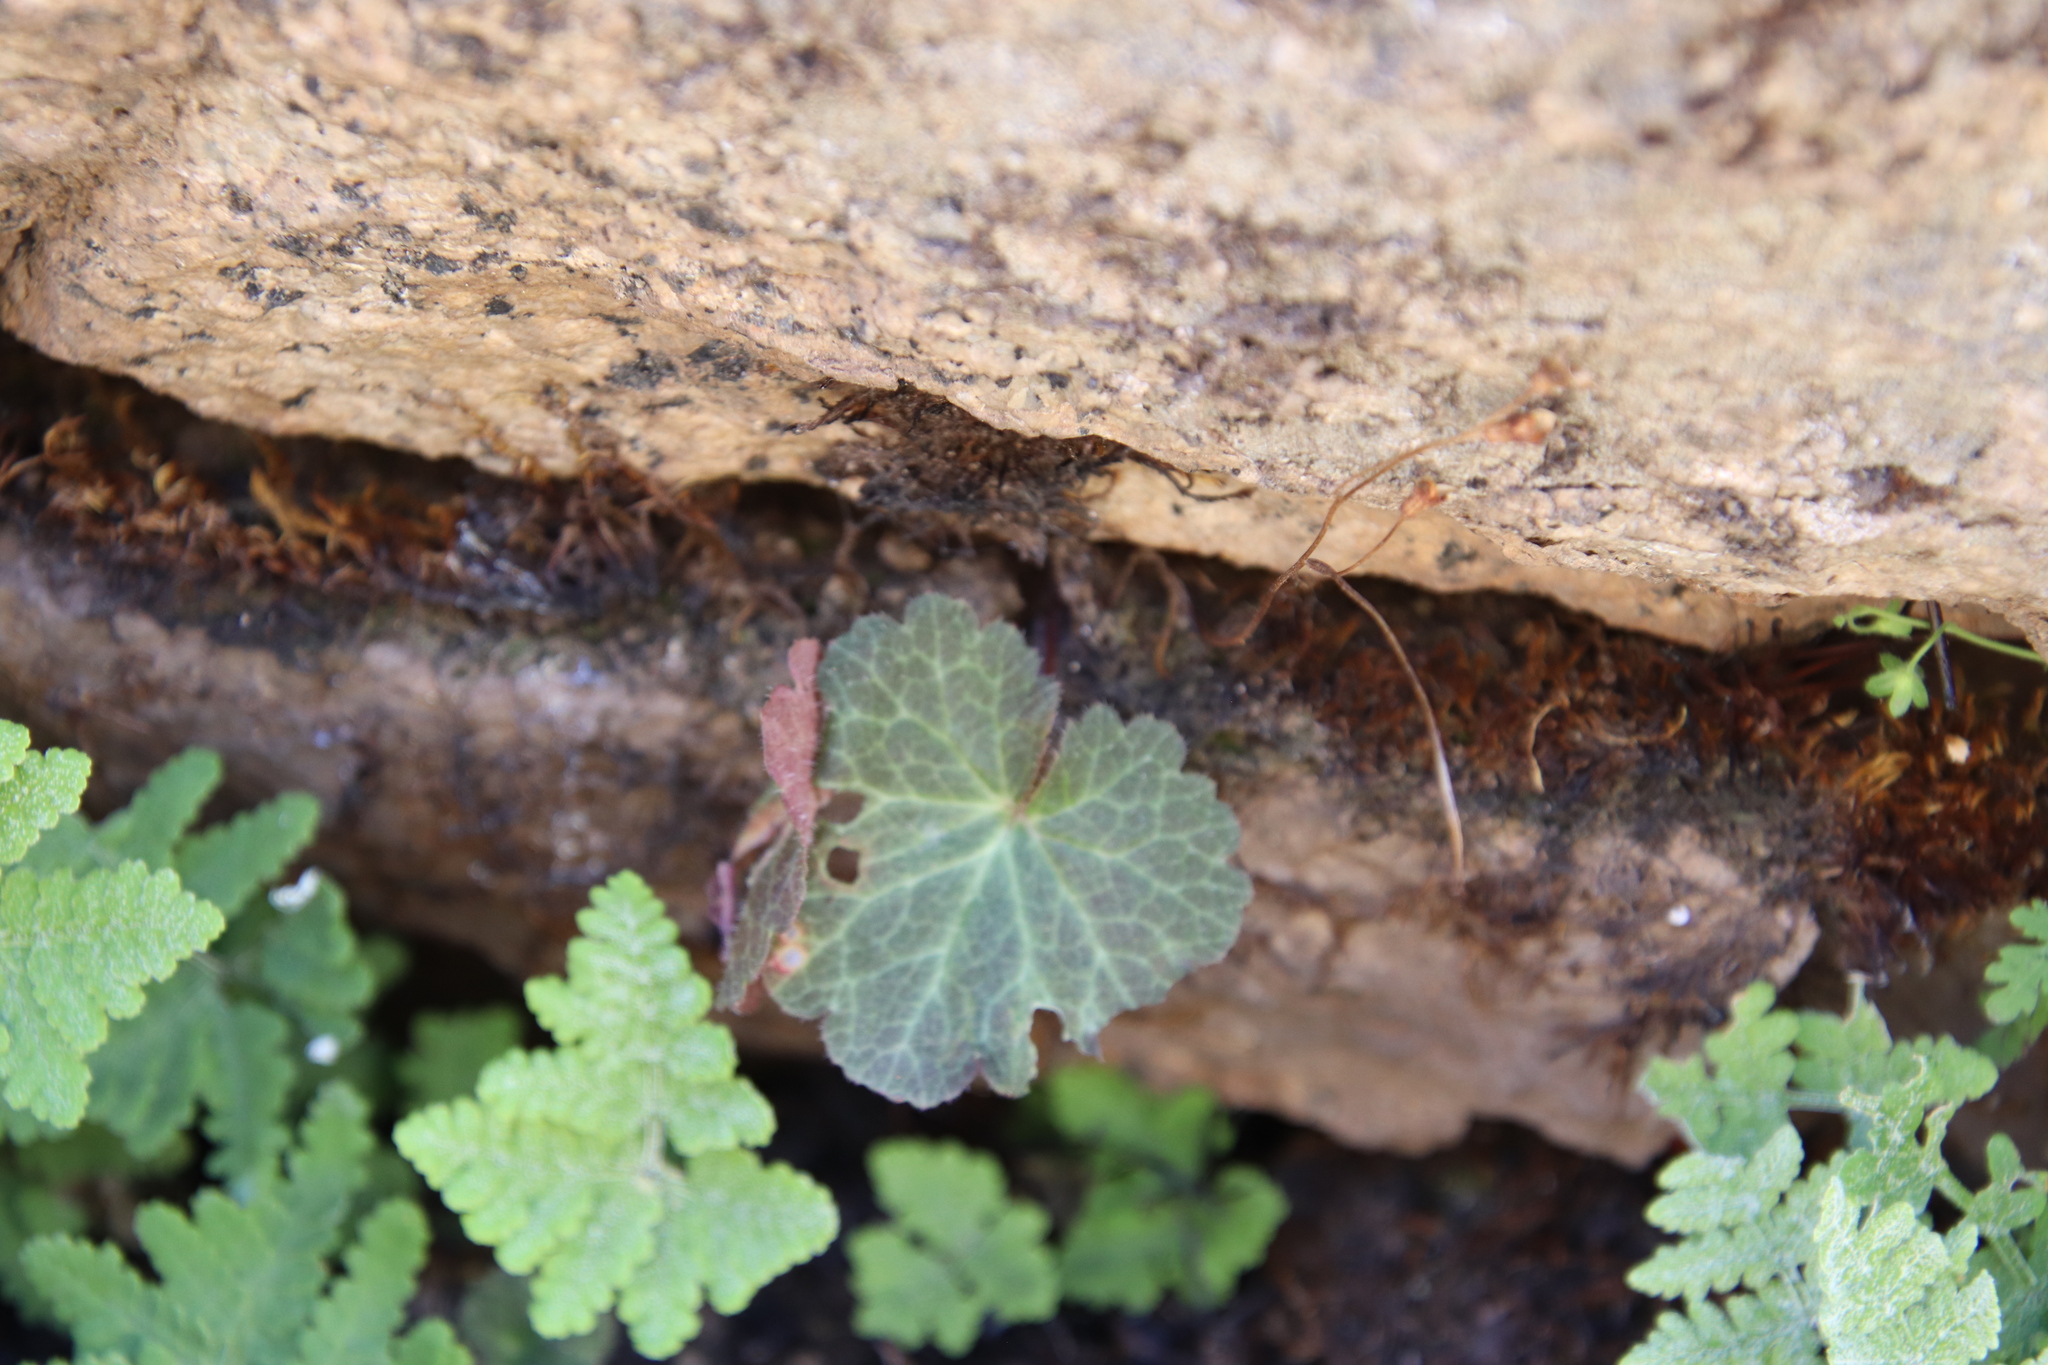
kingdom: Plantae
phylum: Tracheophyta
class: Magnoliopsida
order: Saxifragales
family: Saxifragaceae
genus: Jepsonia
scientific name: Jepsonia parryi
